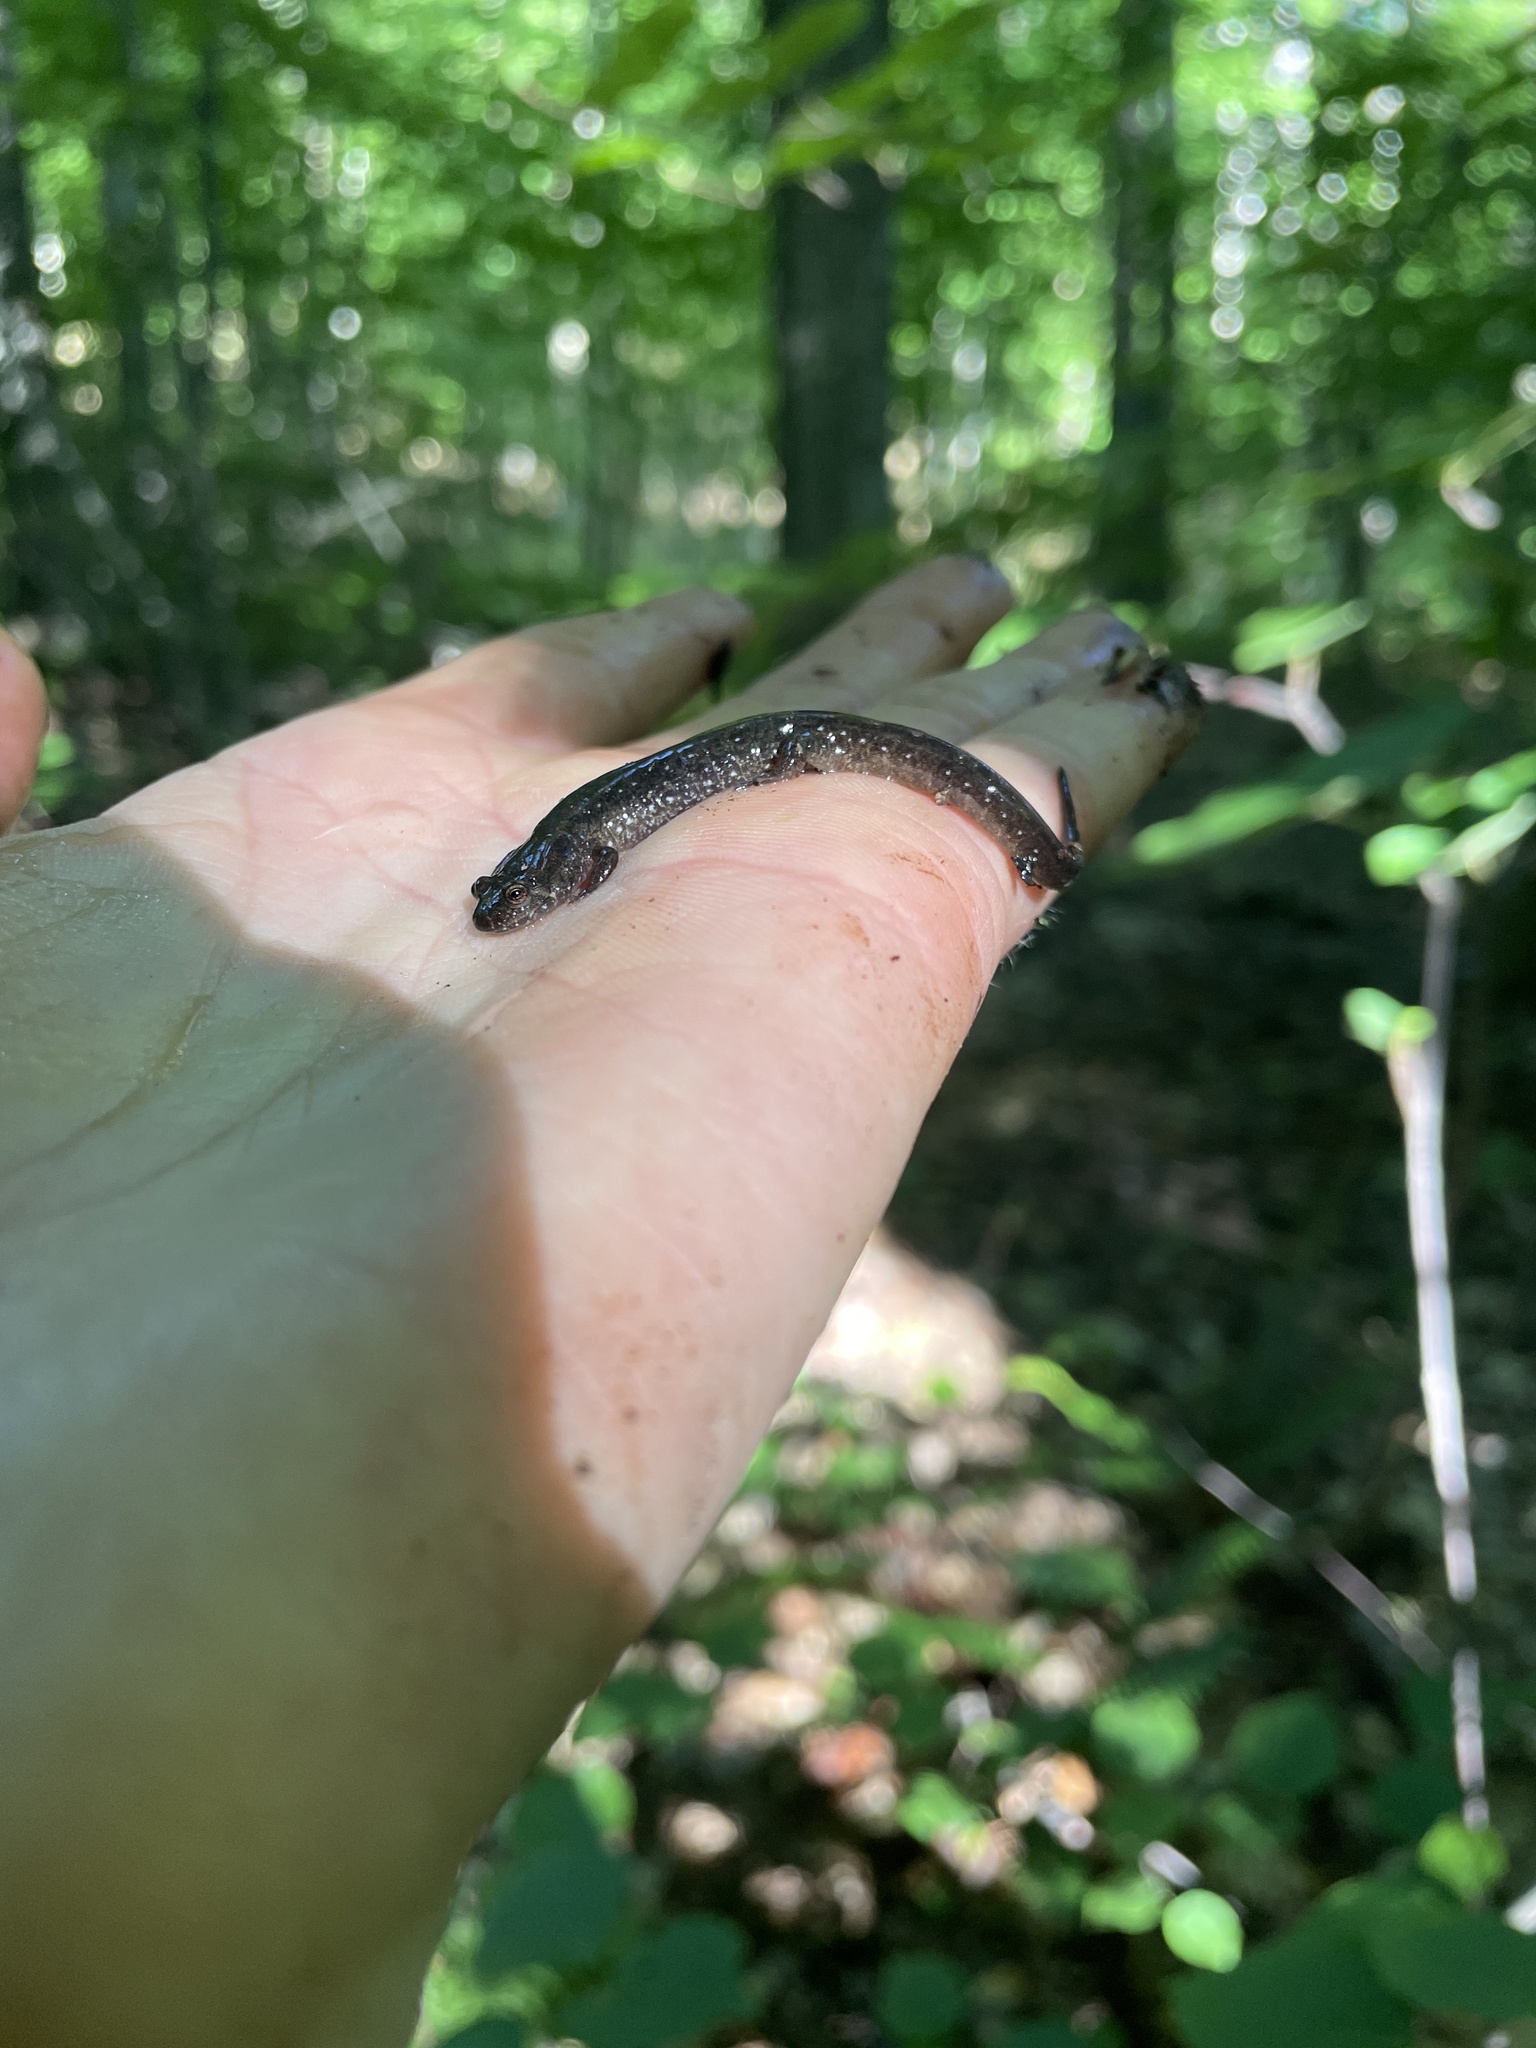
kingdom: Animalia
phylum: Chordata
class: Amphibia
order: Caudata
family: Plethodontidae
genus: Desmognathus
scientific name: Desmognathus fuscus
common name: Northern dusky salamander
